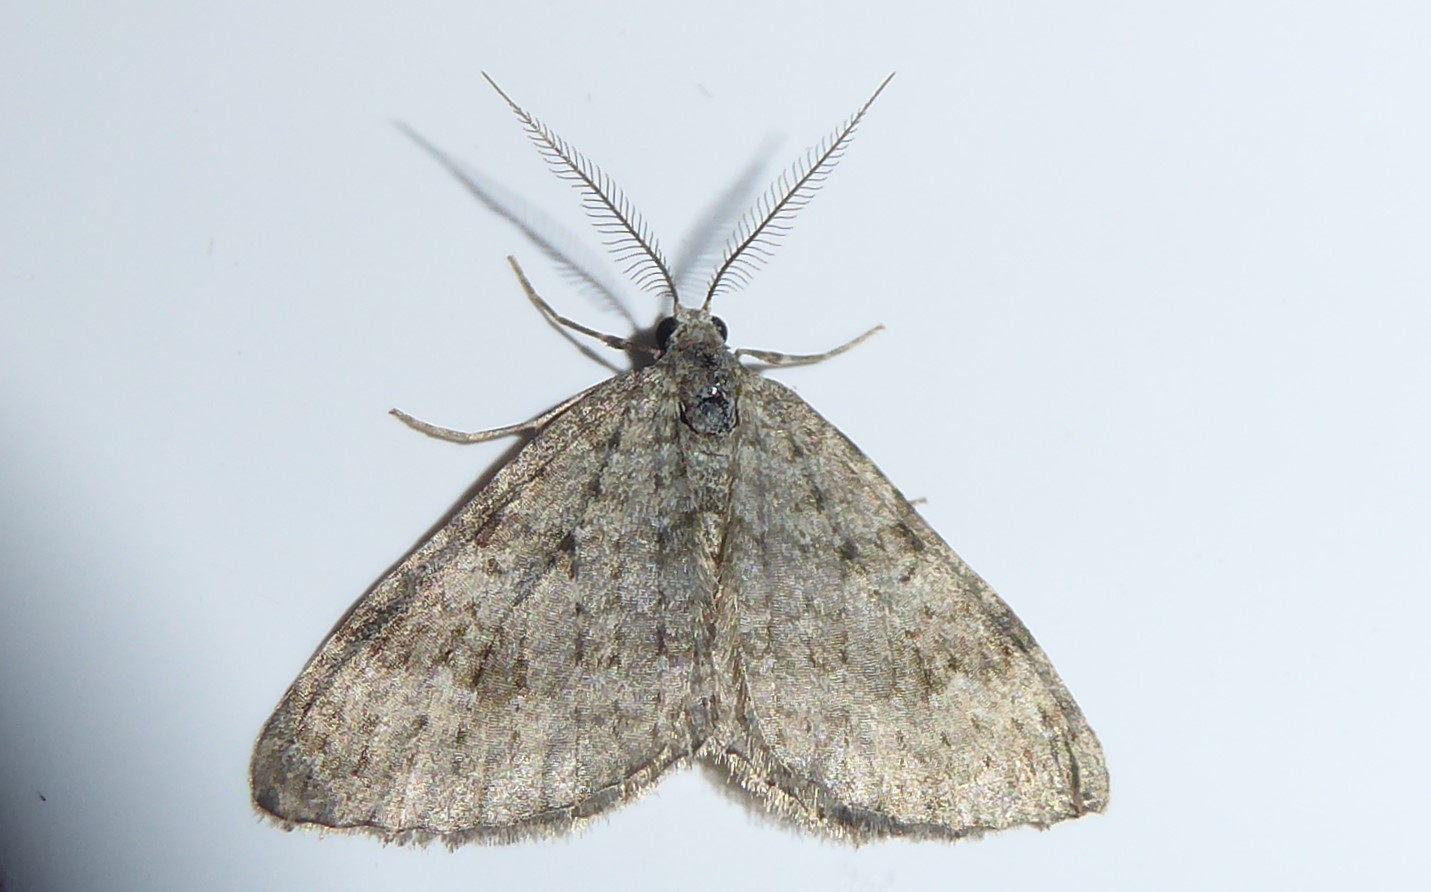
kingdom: Animalia
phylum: Arthropoda
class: Insecta
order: Lepidoptera
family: Geometridae
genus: Helastia
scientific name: Helastia corcularia
